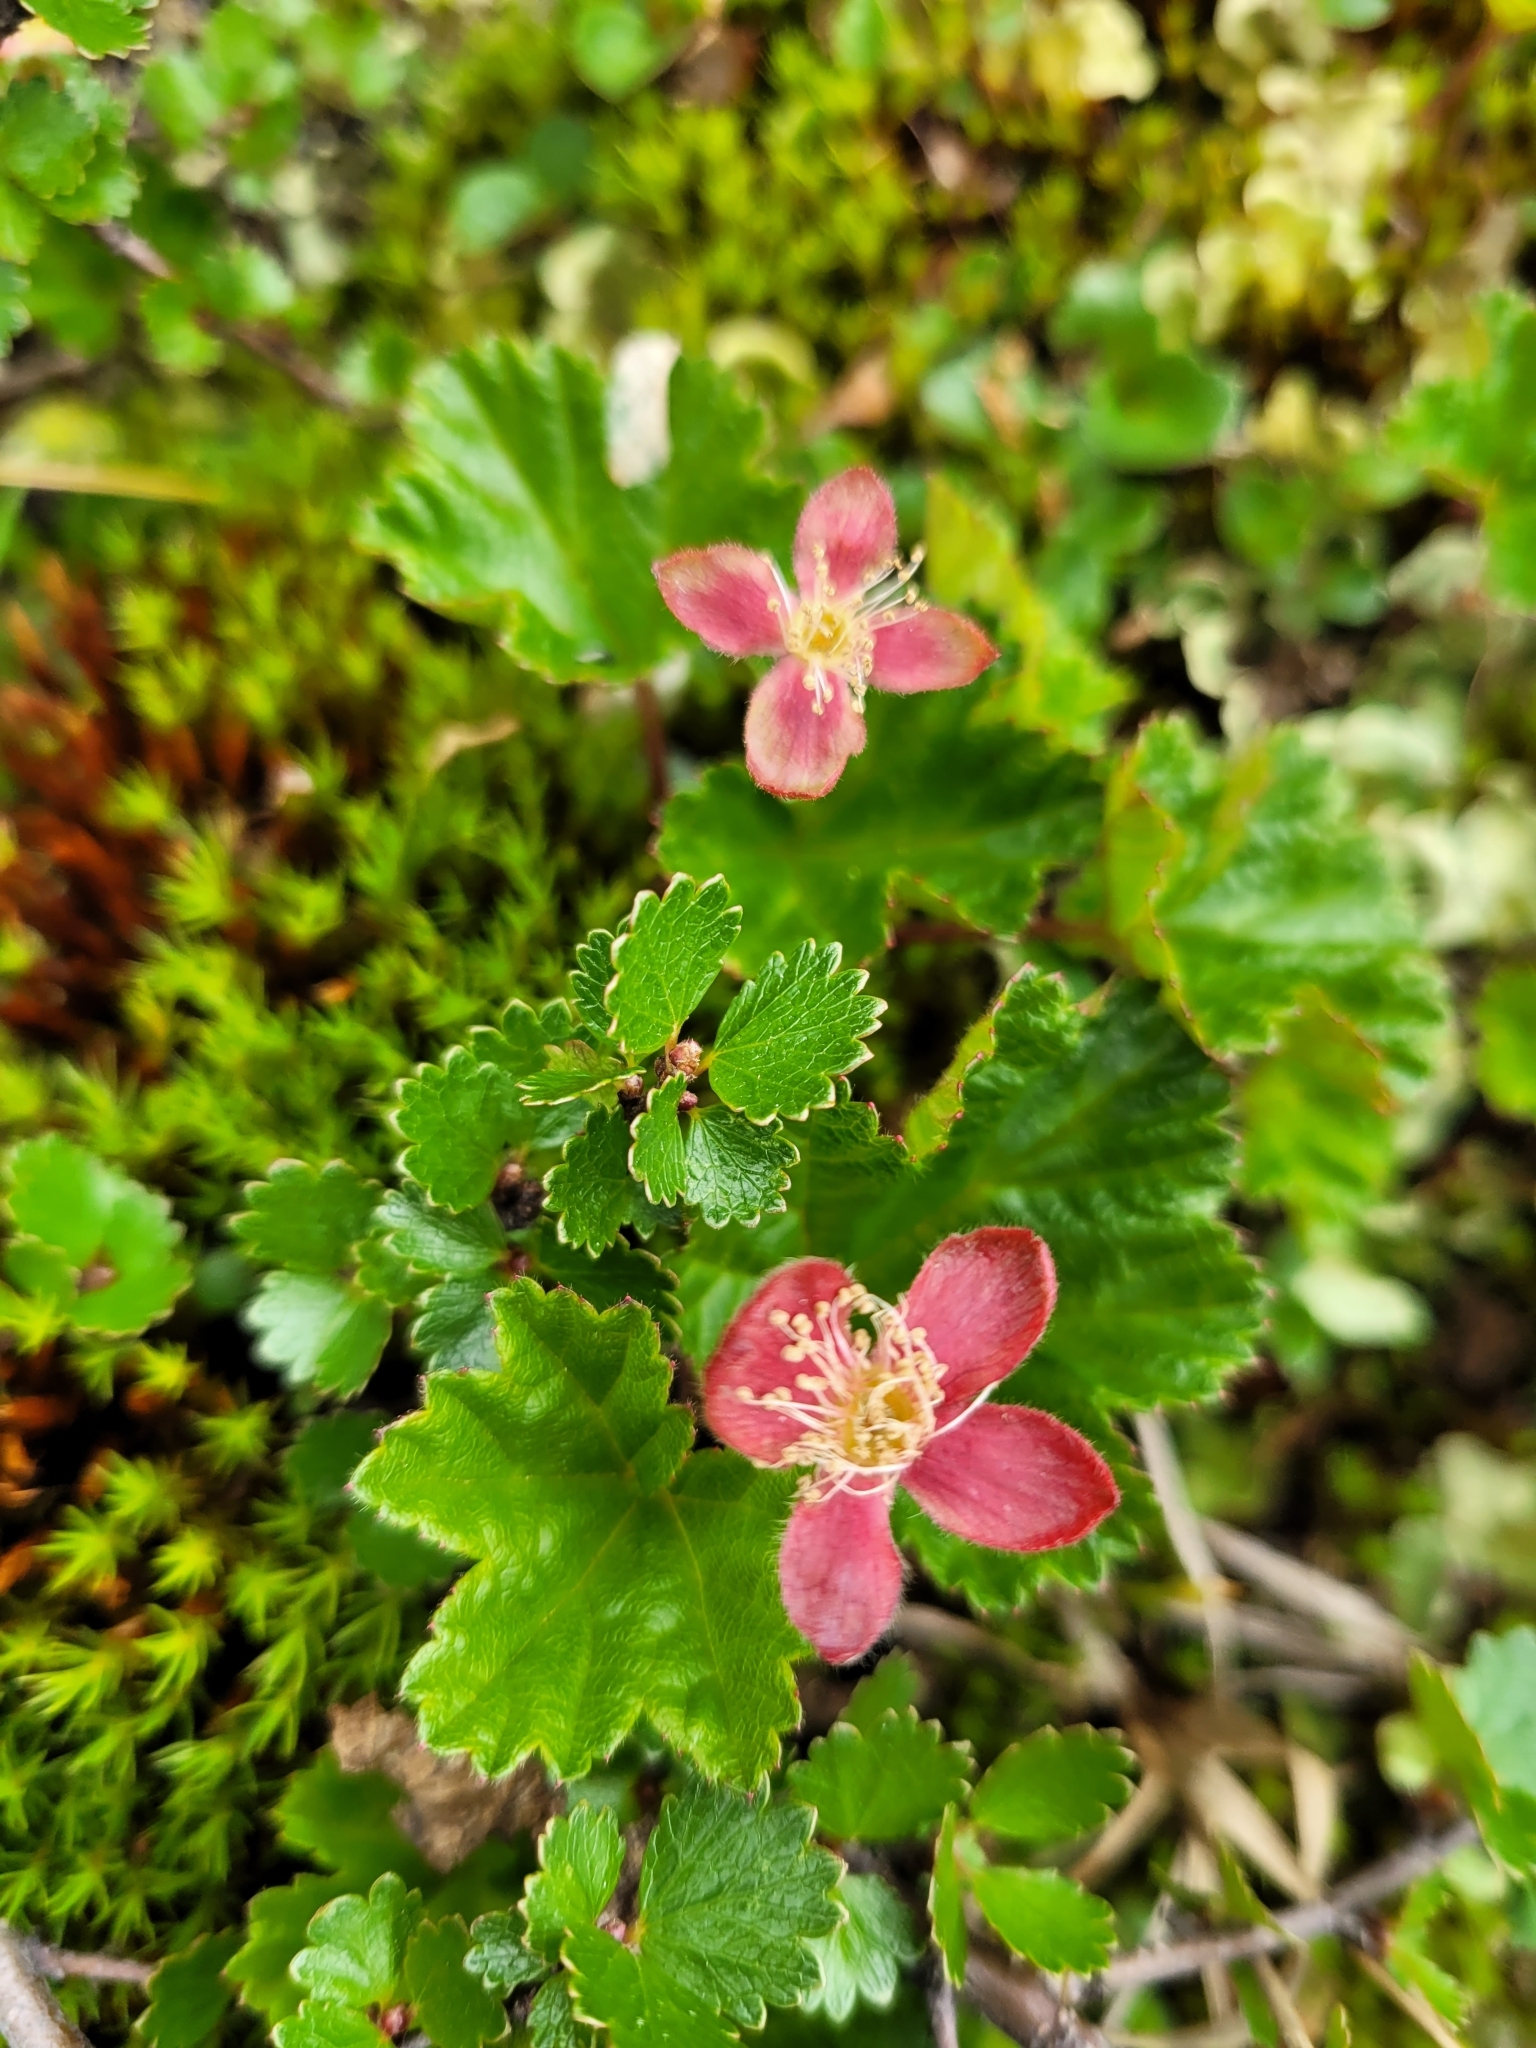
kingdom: Plantae
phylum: Tracheophyta
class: Magnoliopsida
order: Rosales
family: Rosaceae
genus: Rubus
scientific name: Rubus chamaemorus
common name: Cloudberry
